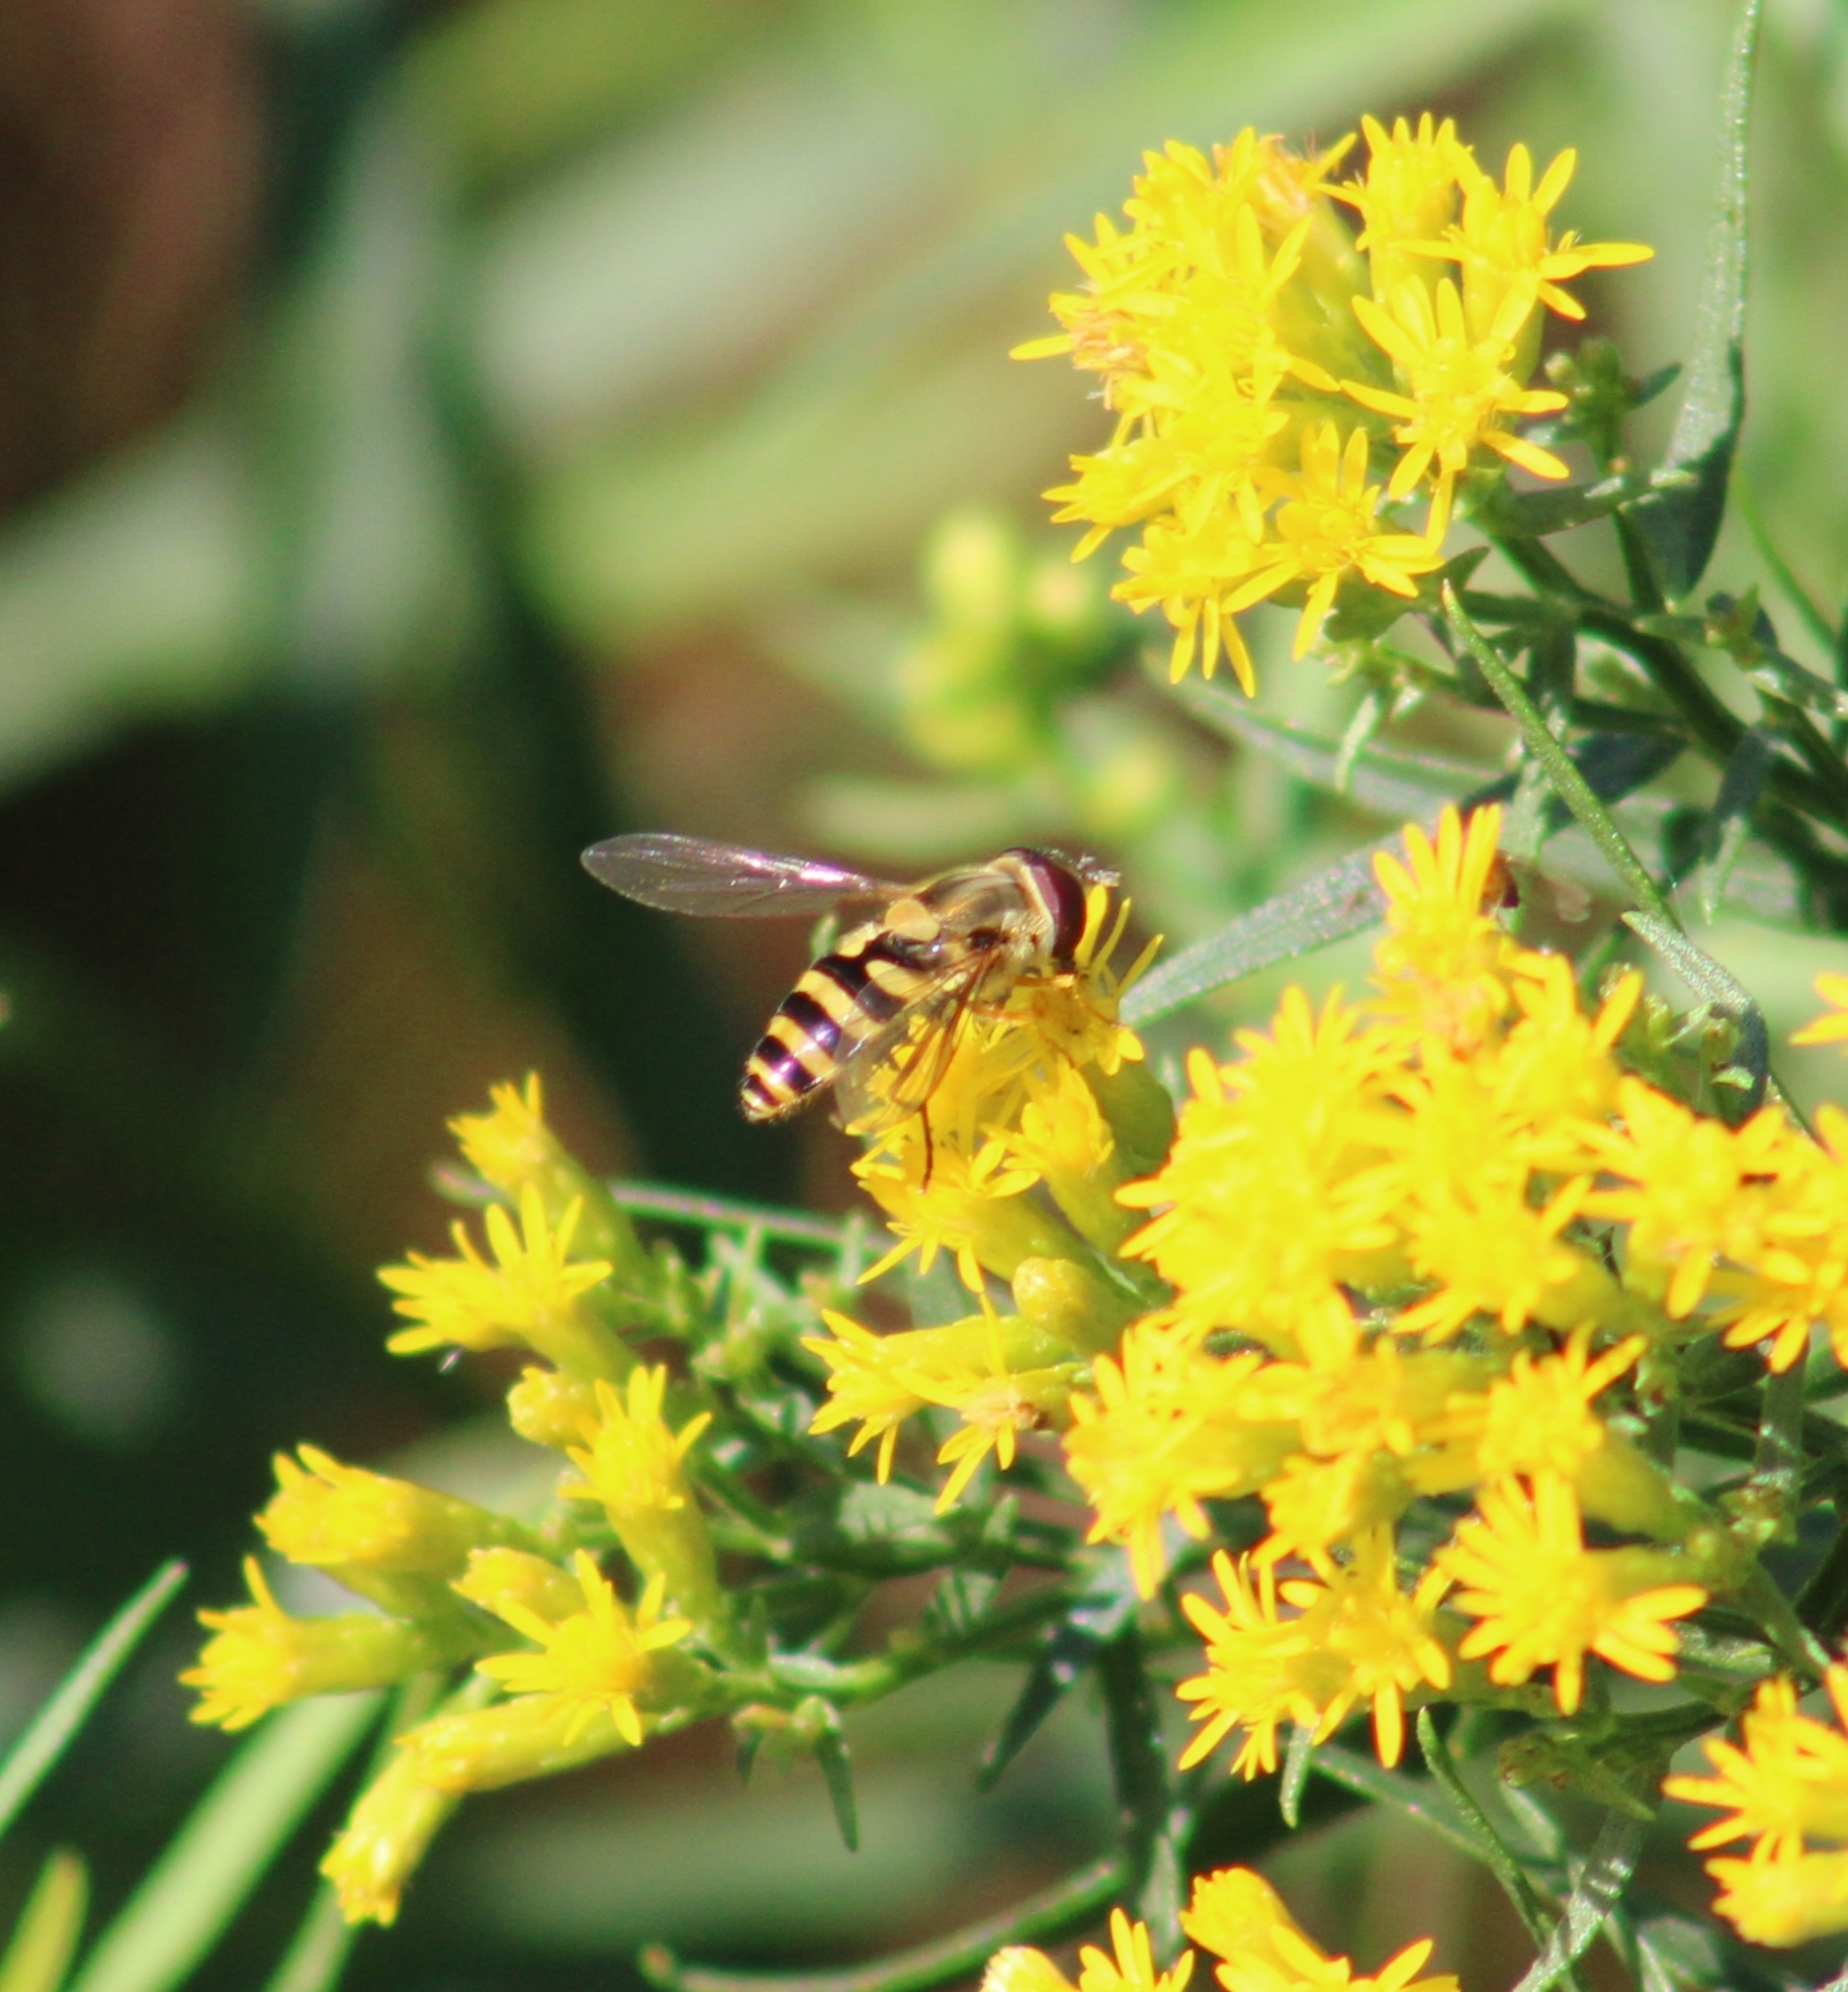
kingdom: Animalia
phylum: Arthropoda
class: Insecta
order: Diptera
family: Syrphidae
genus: Syrphus
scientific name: Syrphus
